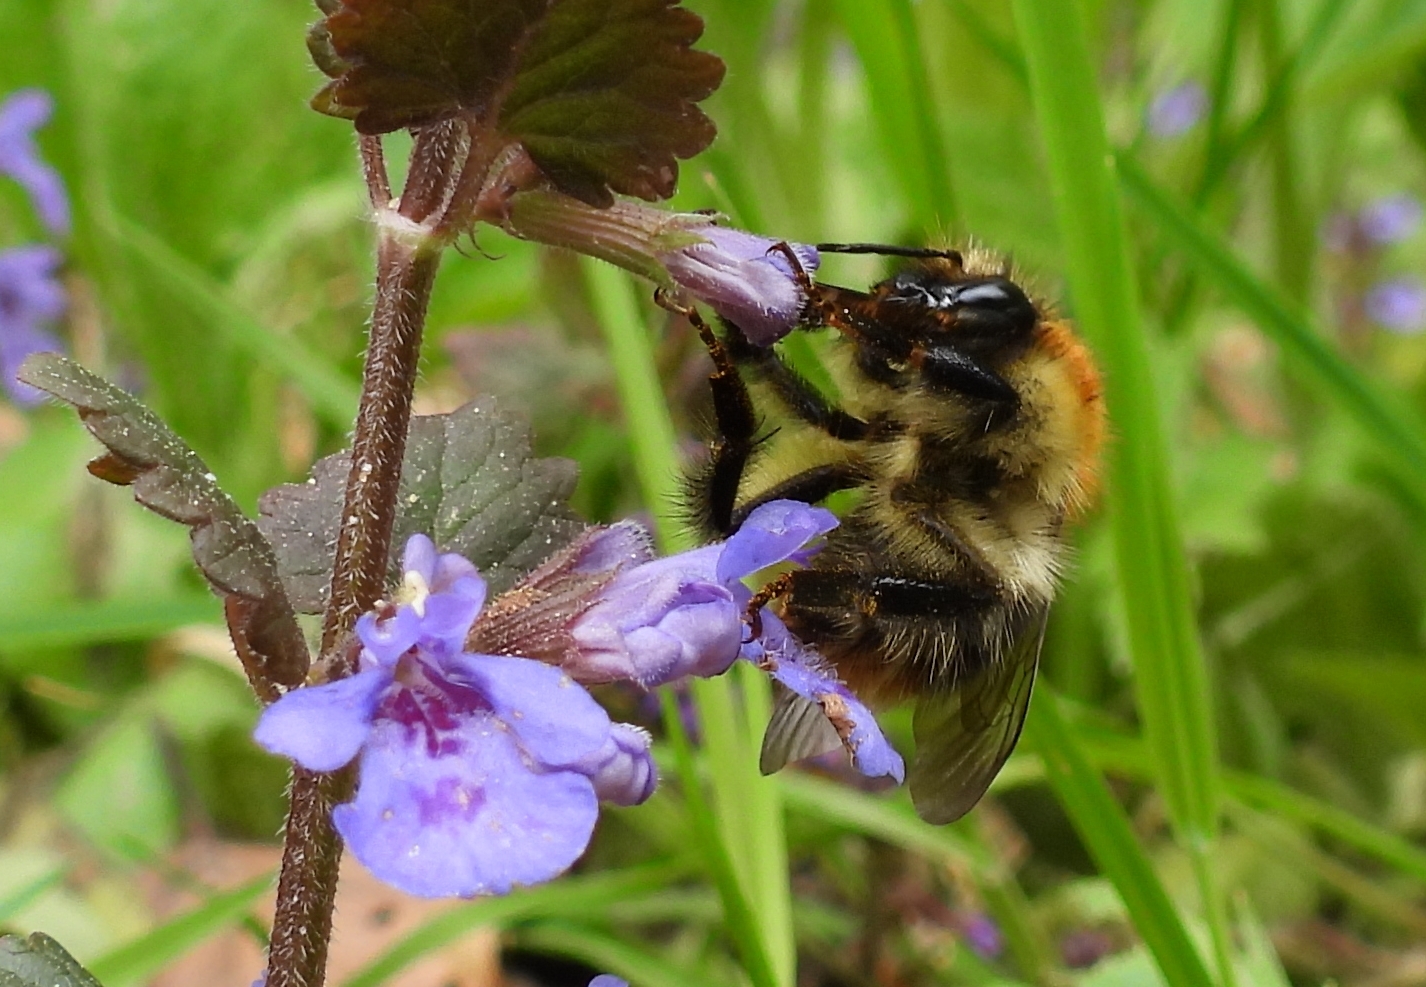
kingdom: Animalia
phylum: Arthropoda
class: Insecta
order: Hymenoptera
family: Apidae
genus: Bombus
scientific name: Bombus pascuorum
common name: Common carder bee
